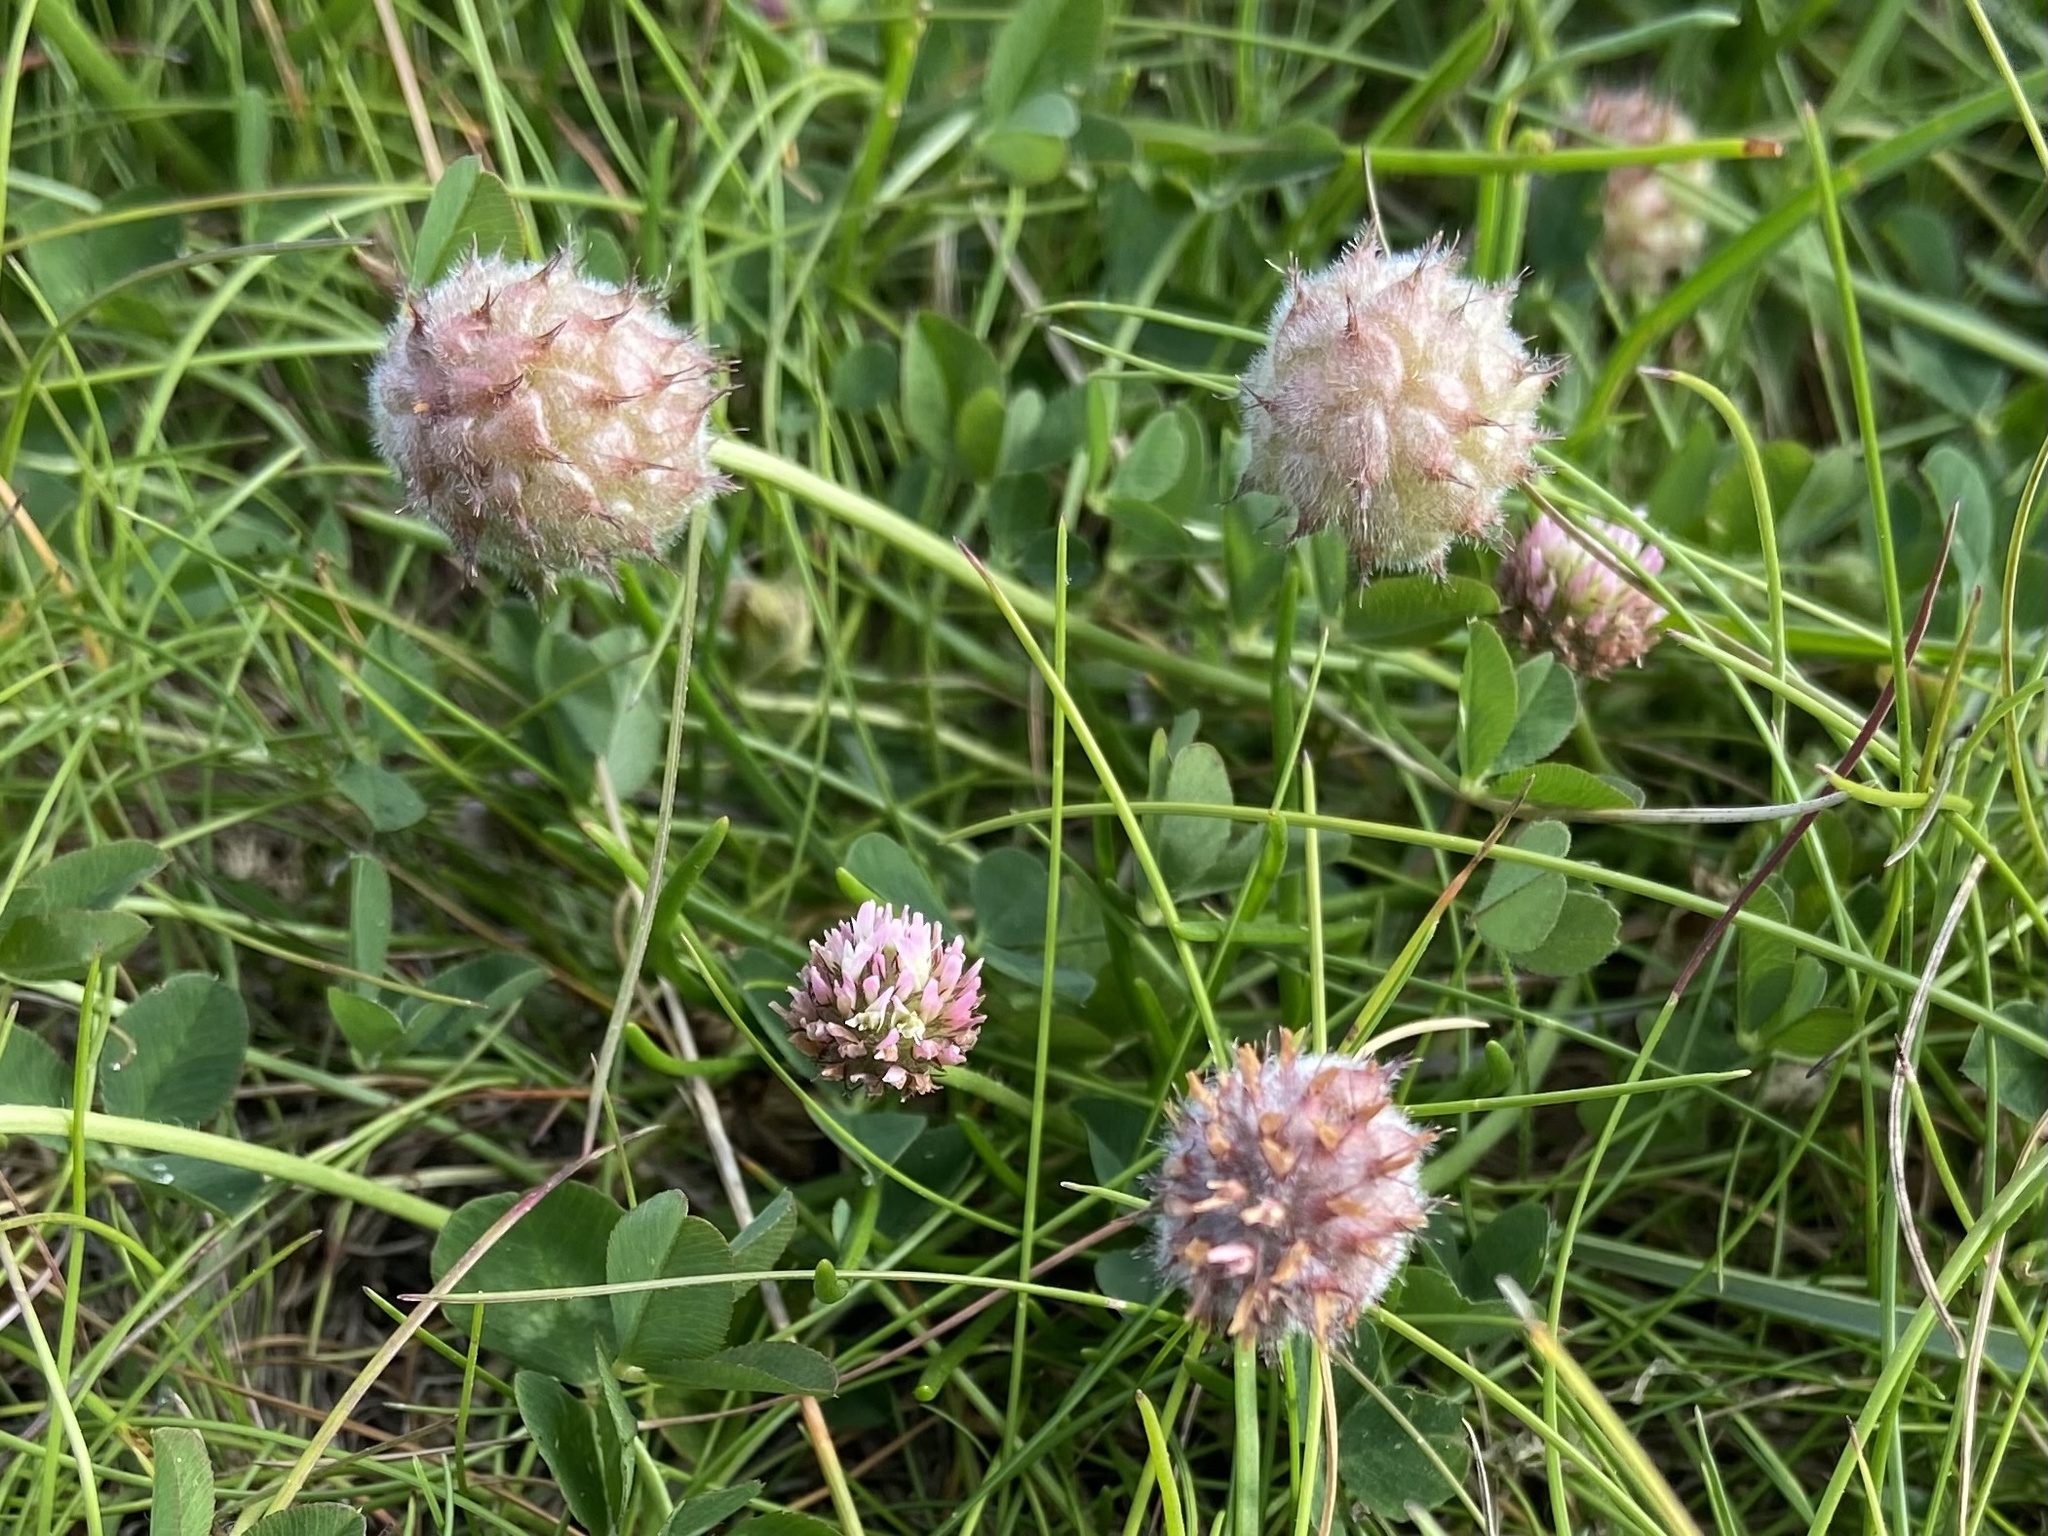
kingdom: Plantae
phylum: Tracheophyta
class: Magnoliopsida
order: Fabales
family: Fabaceae
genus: Trifolium
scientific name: Trifolium fragiferum
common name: Strawberry clover
